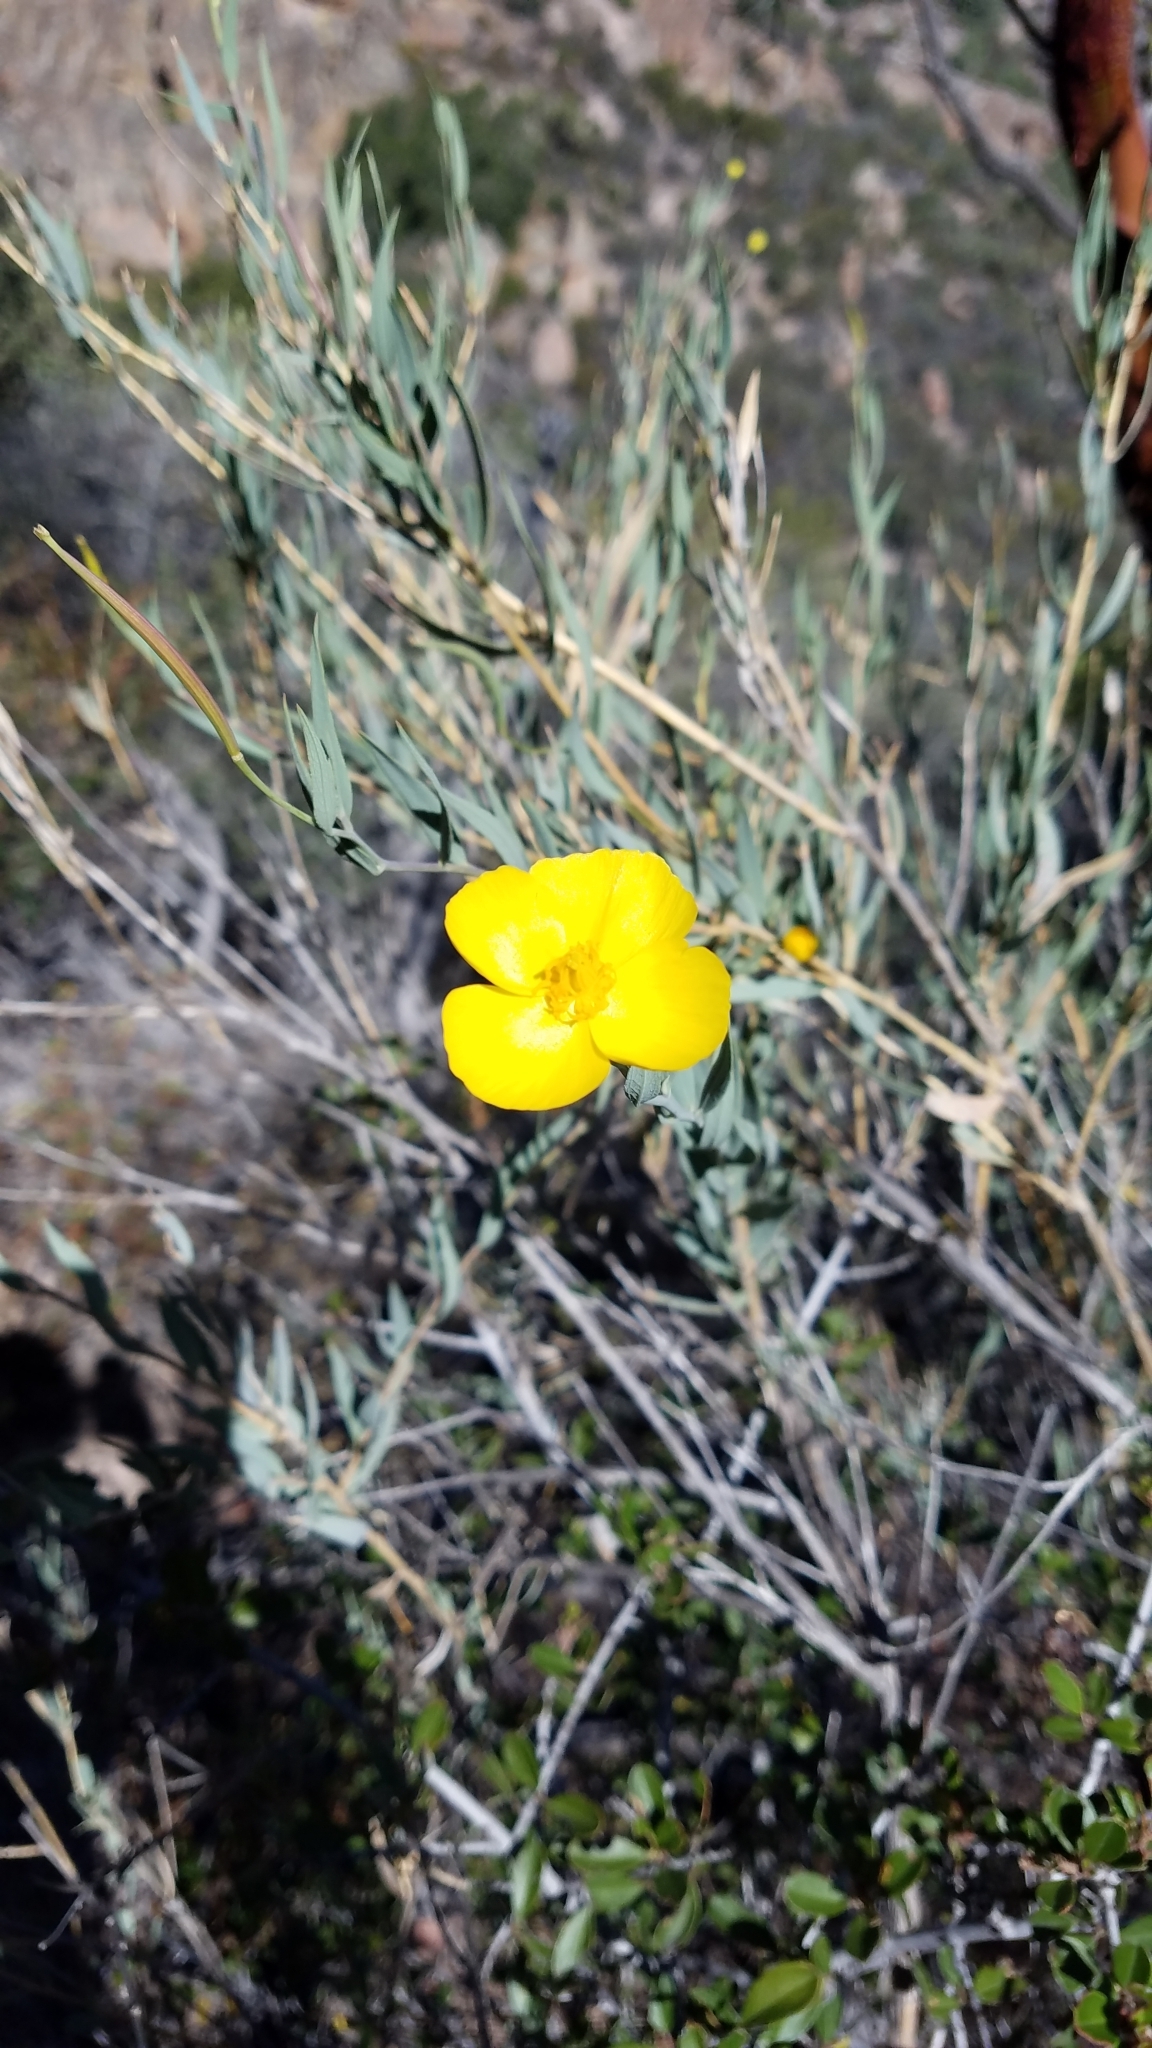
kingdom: Plantae
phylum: Tracheophyta
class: Magnoliopsida
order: Ranunculales
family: Papaveraceae
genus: Dendromecon
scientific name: Dendromecon rigida
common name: Tree poppy
